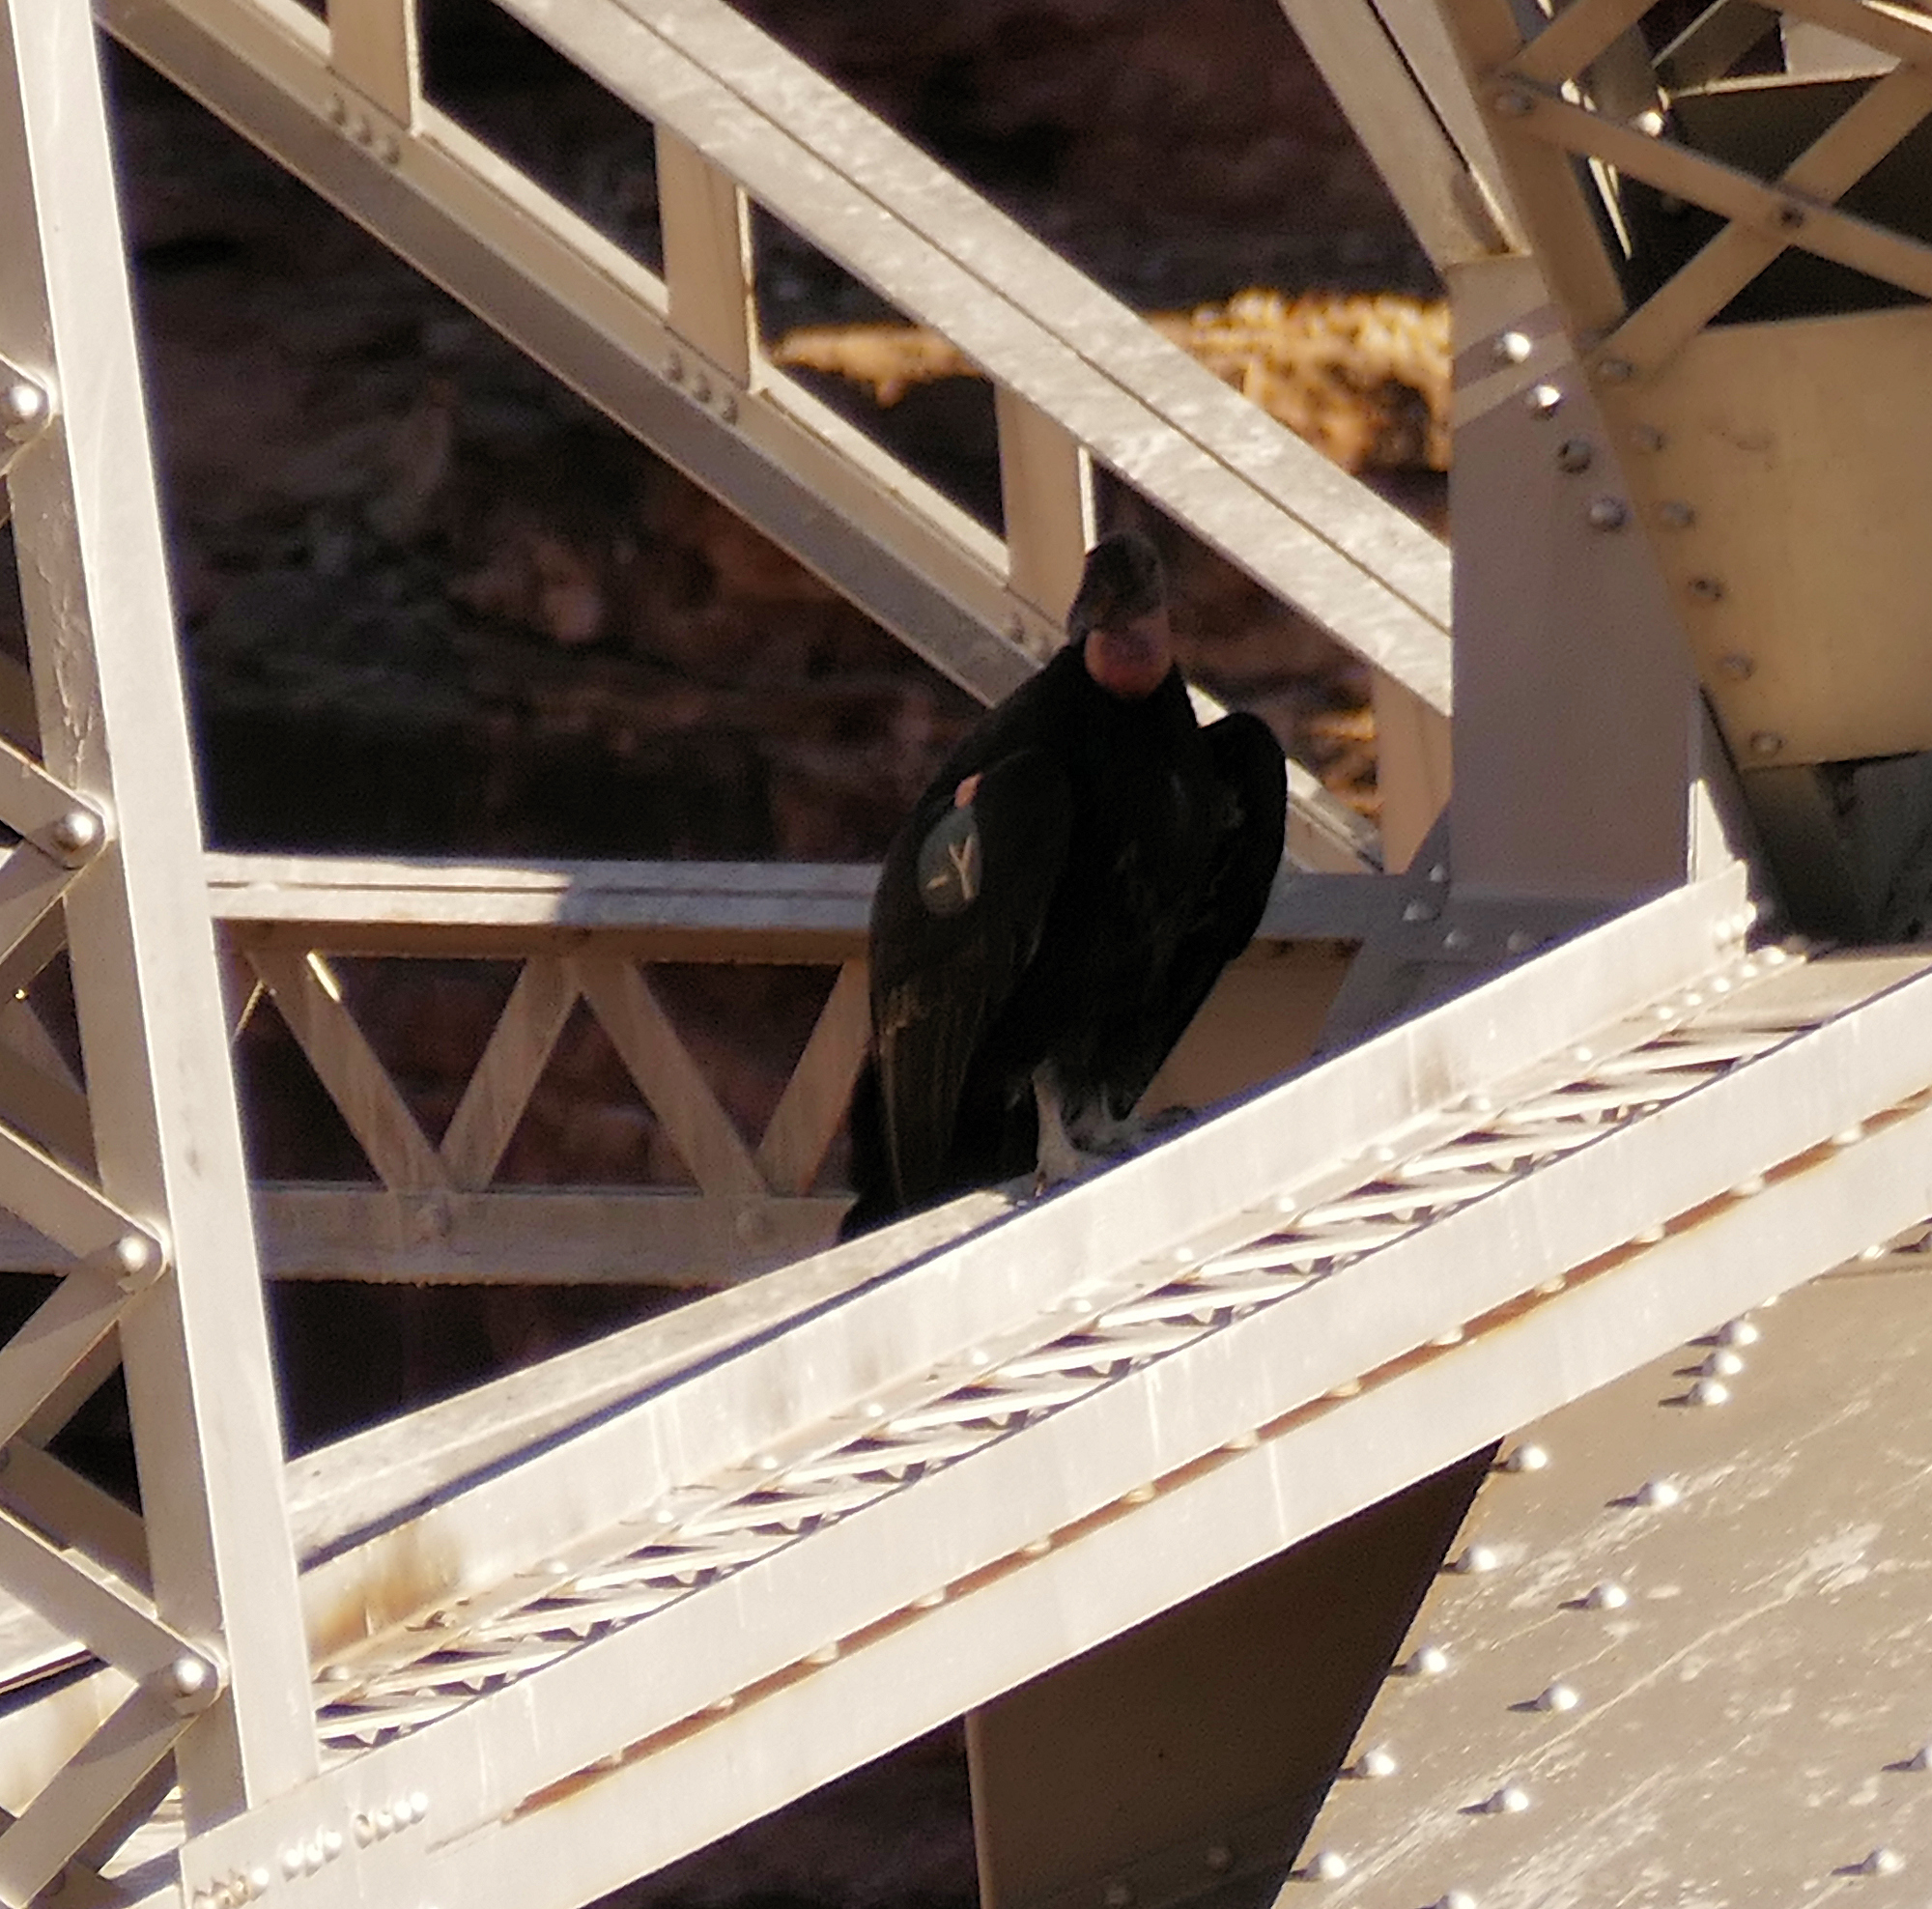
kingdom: Animalia
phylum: Chordata
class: Aves
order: Accipitriformes
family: Cathartidae
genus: Gymnogyps
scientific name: Gymnogyps californianus
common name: California condor
